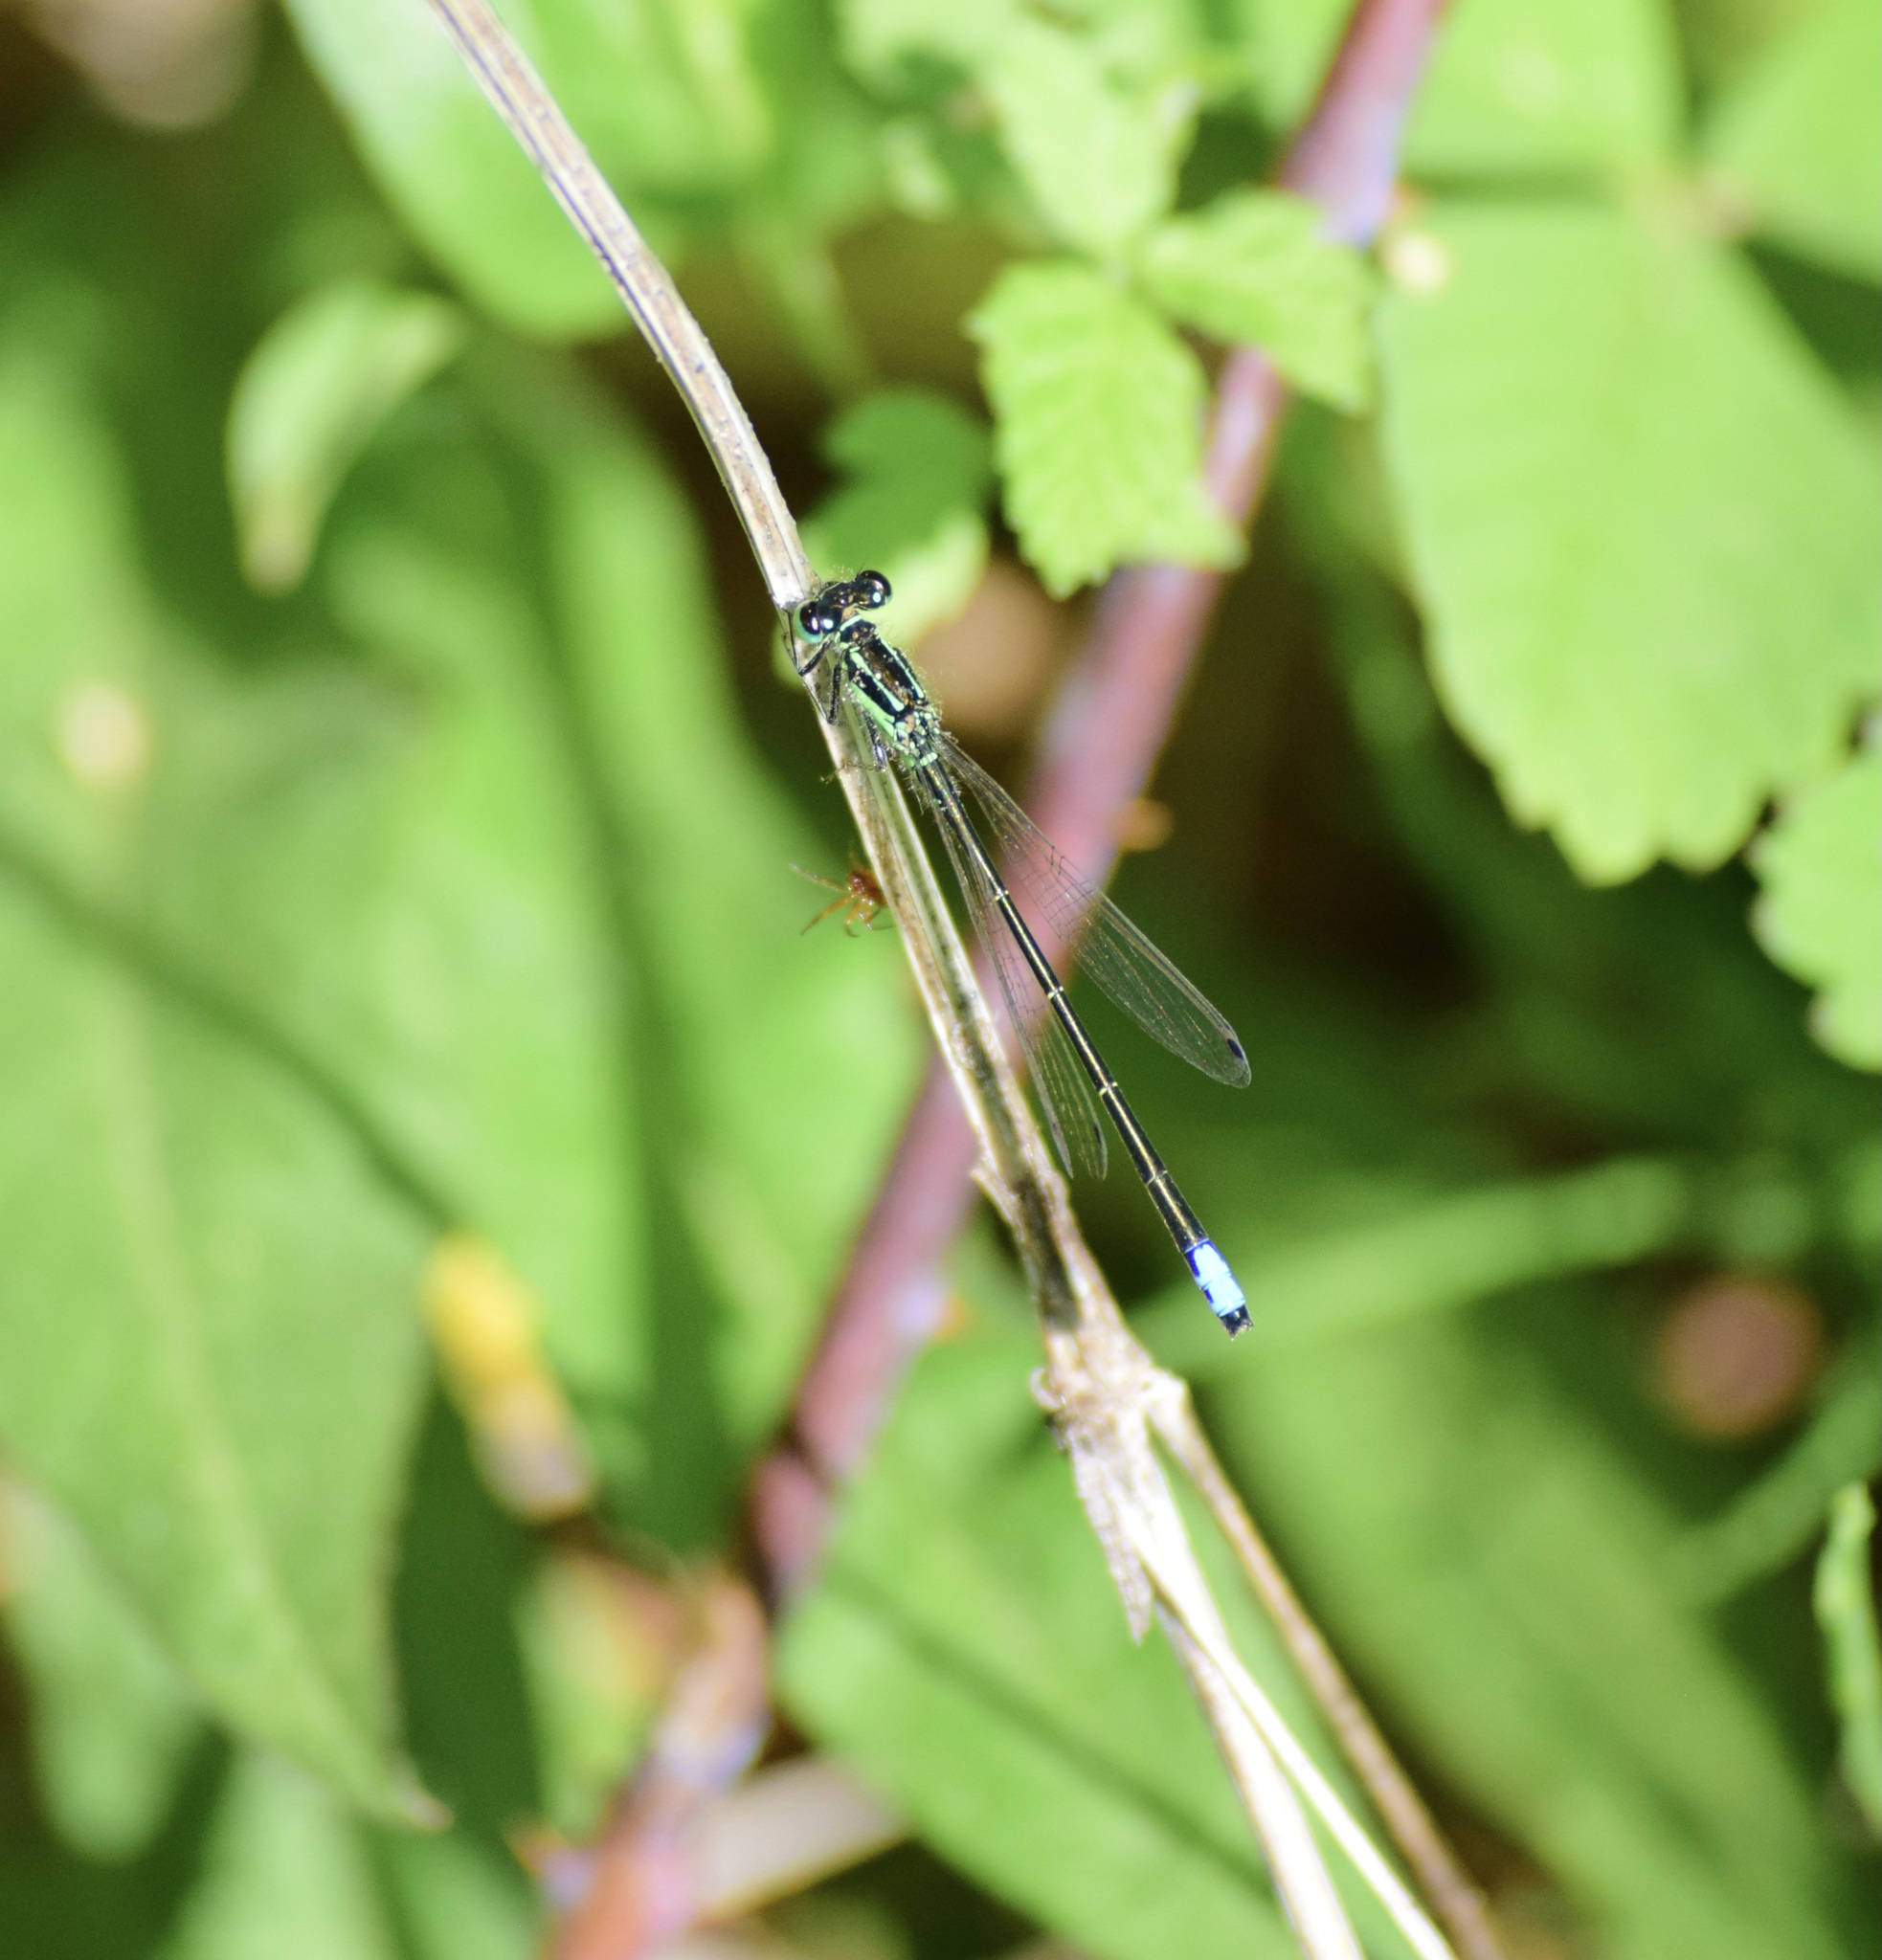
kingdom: Animalia
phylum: Arthropoda
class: Insecta
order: Odonata
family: Coenagrionidae
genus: Ischnura
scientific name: Ischnura verticalis
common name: Eastern forktail
